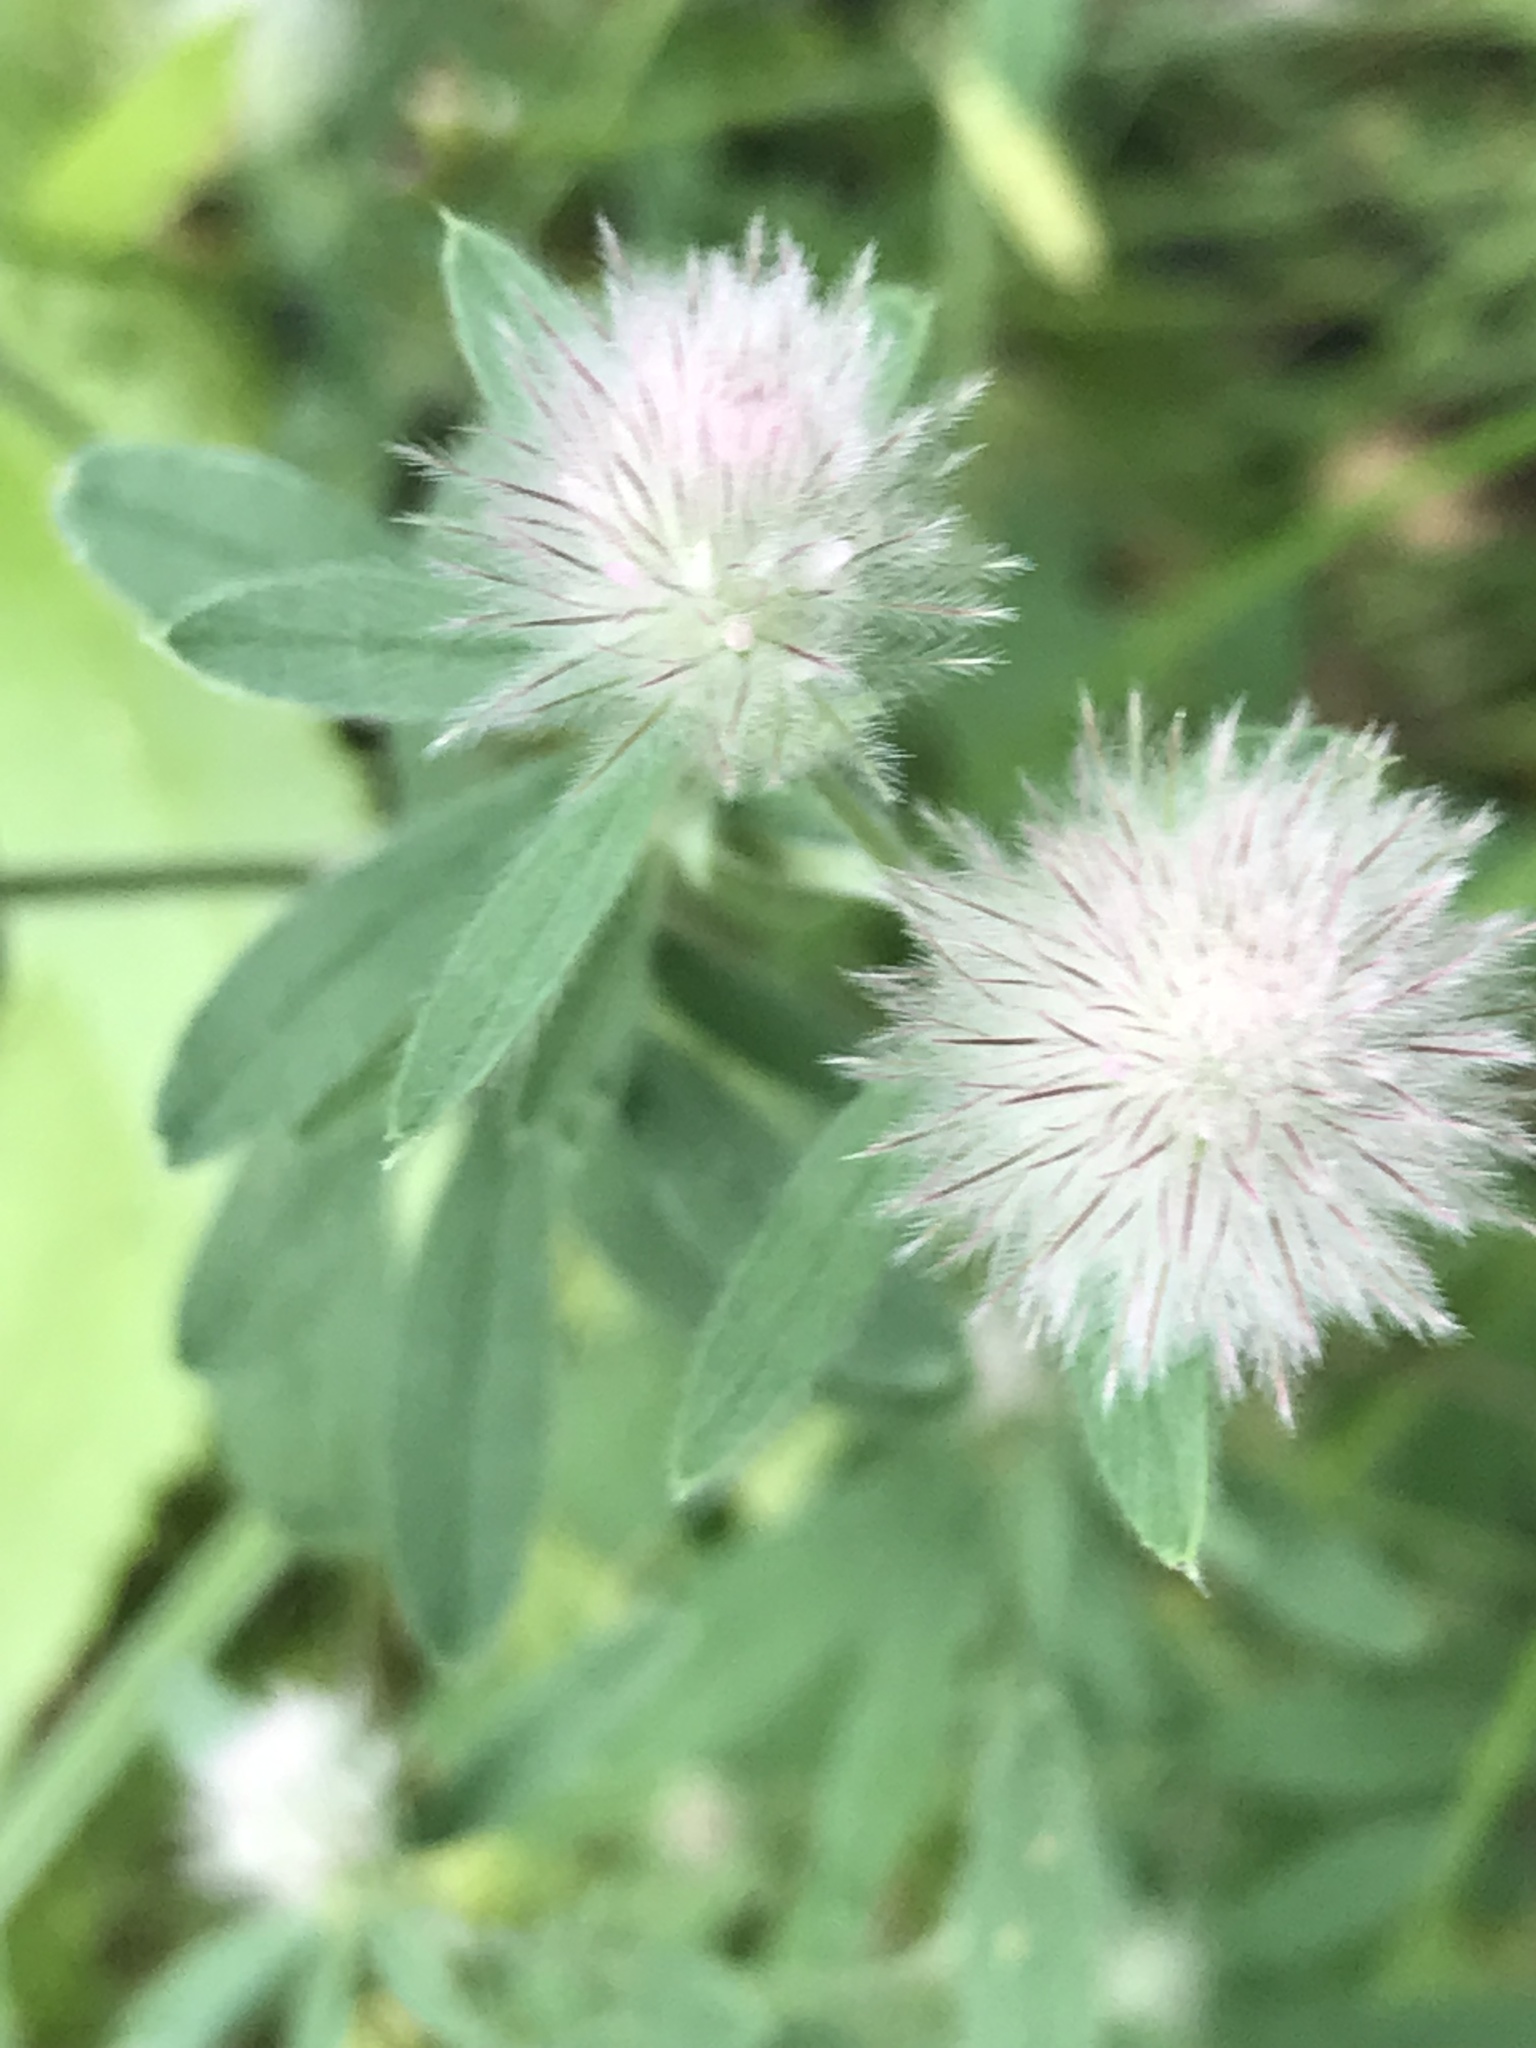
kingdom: Plantae
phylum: Tracheophyta
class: Magnoliopsida
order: Fabales
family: Fabaceae
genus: Trifolium
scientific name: Trifolium arvense
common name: Hare's-foot clover
